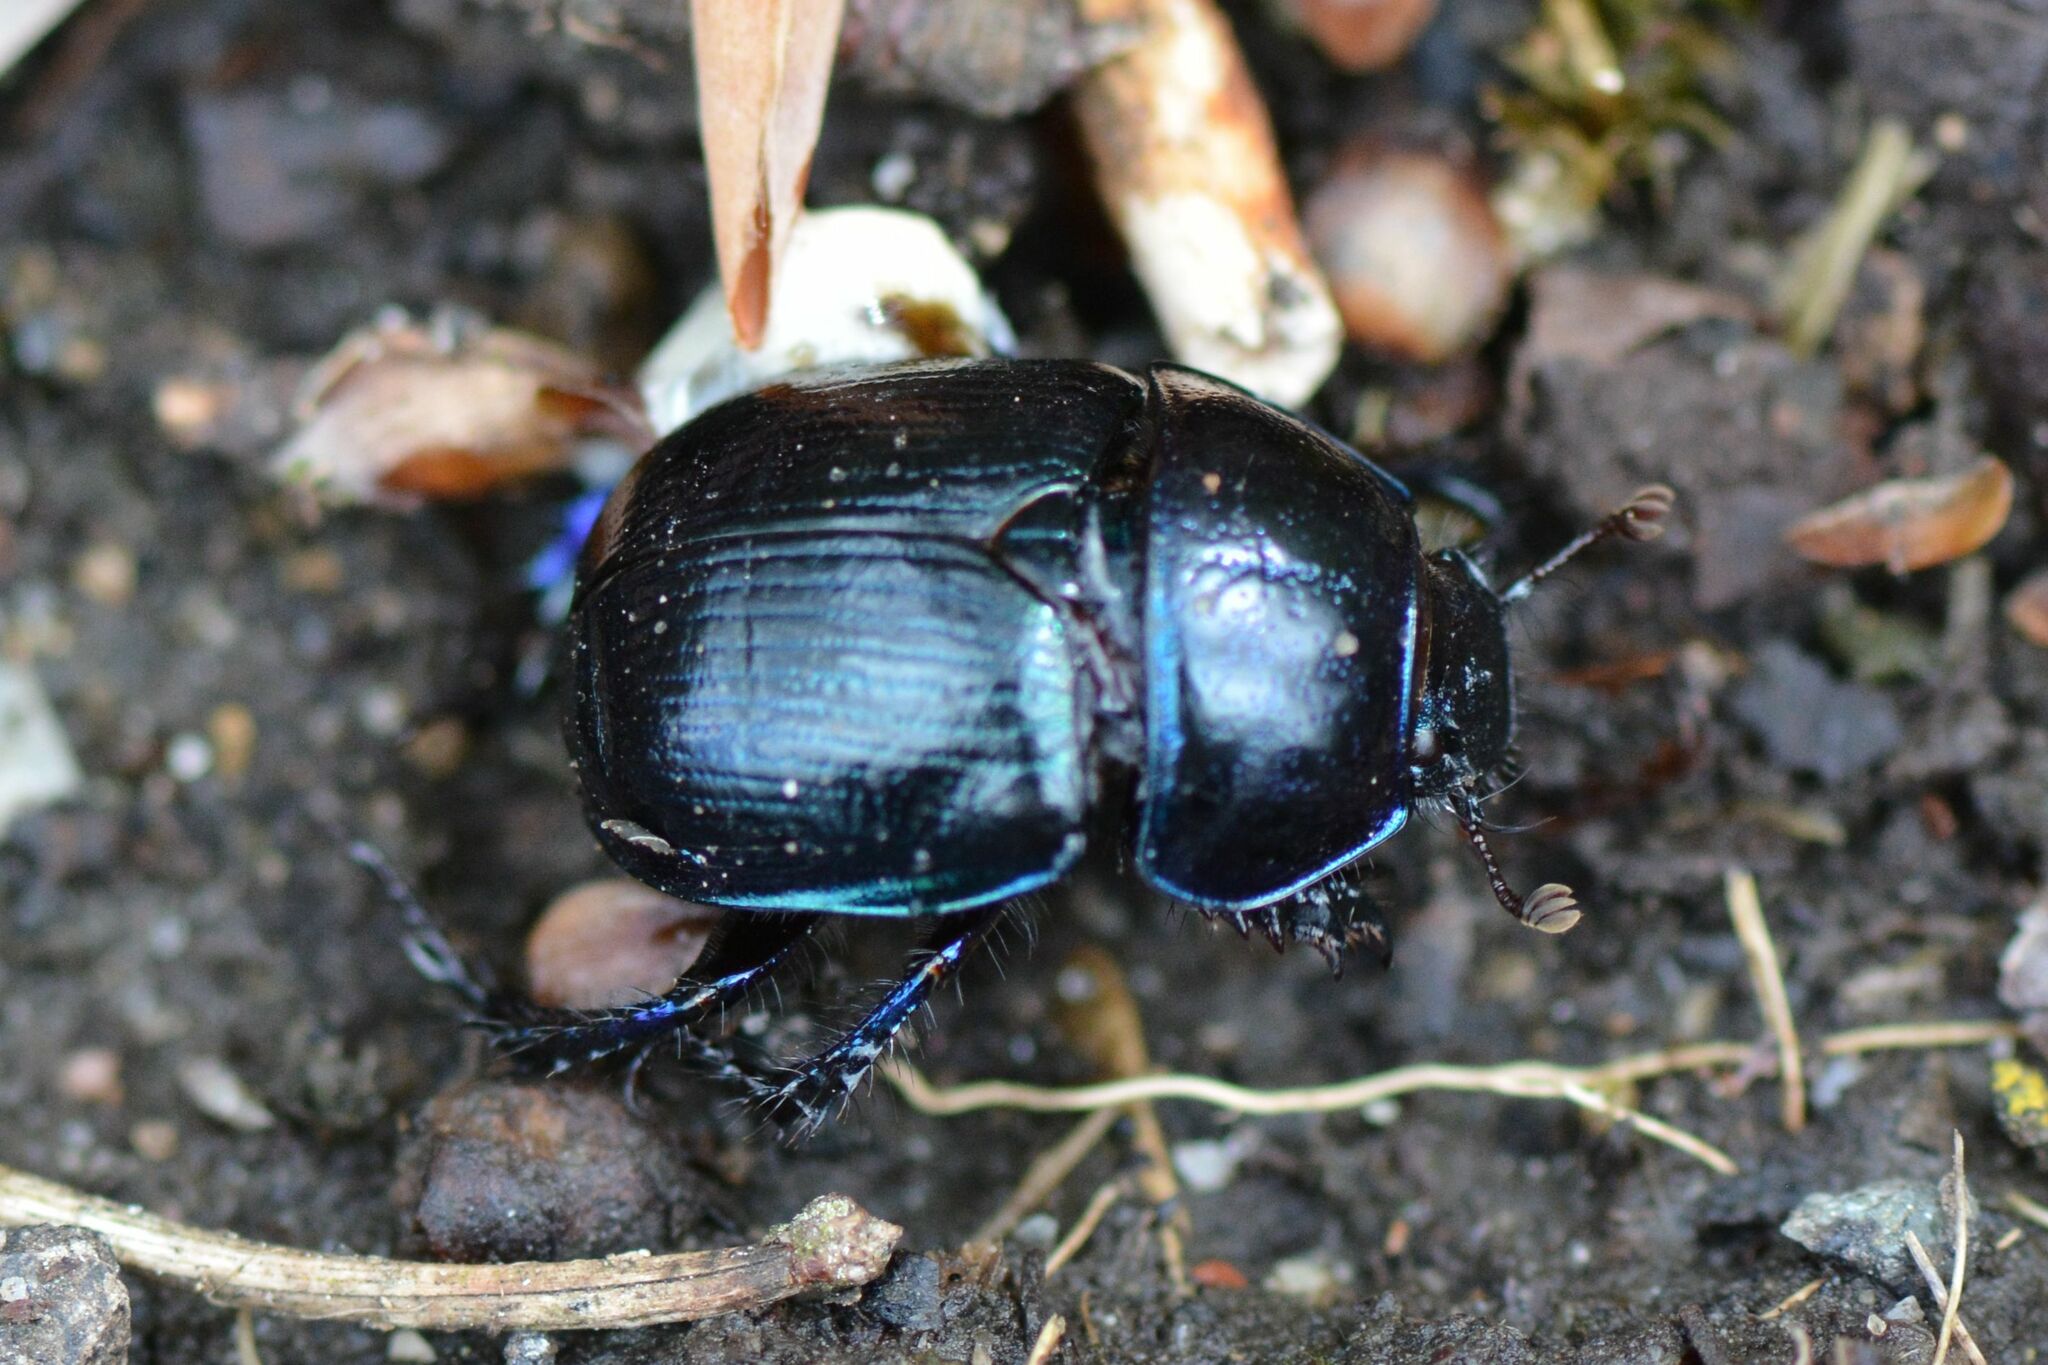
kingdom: Animalia
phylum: Arthropoda
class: Insecta
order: Coleoptera
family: Geotrupidae
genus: Anoplotrupes
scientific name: Anoplotrupes stercorosus
